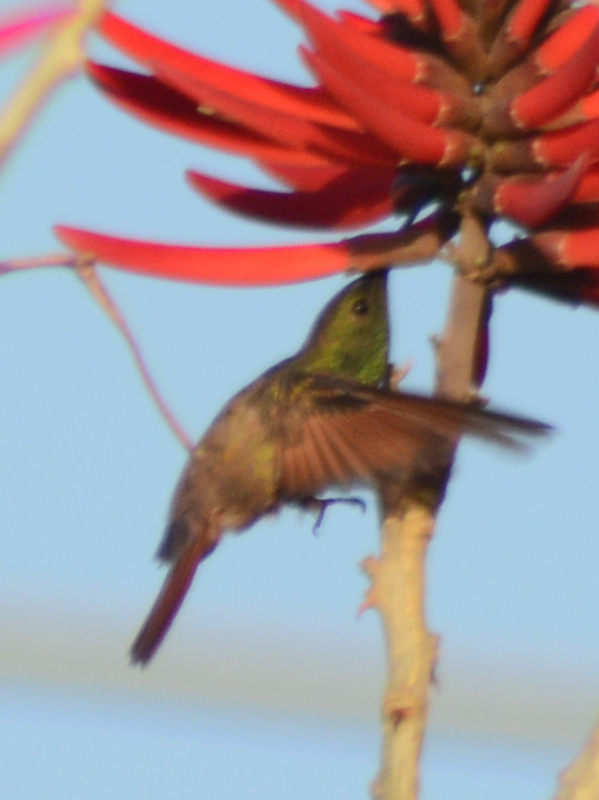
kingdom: Animalia
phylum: Chordata
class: Aves
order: Apodiformes
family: Trochilidae
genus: Saucerottia
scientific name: Saucerottia beryllina
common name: Berylline hummingbird
